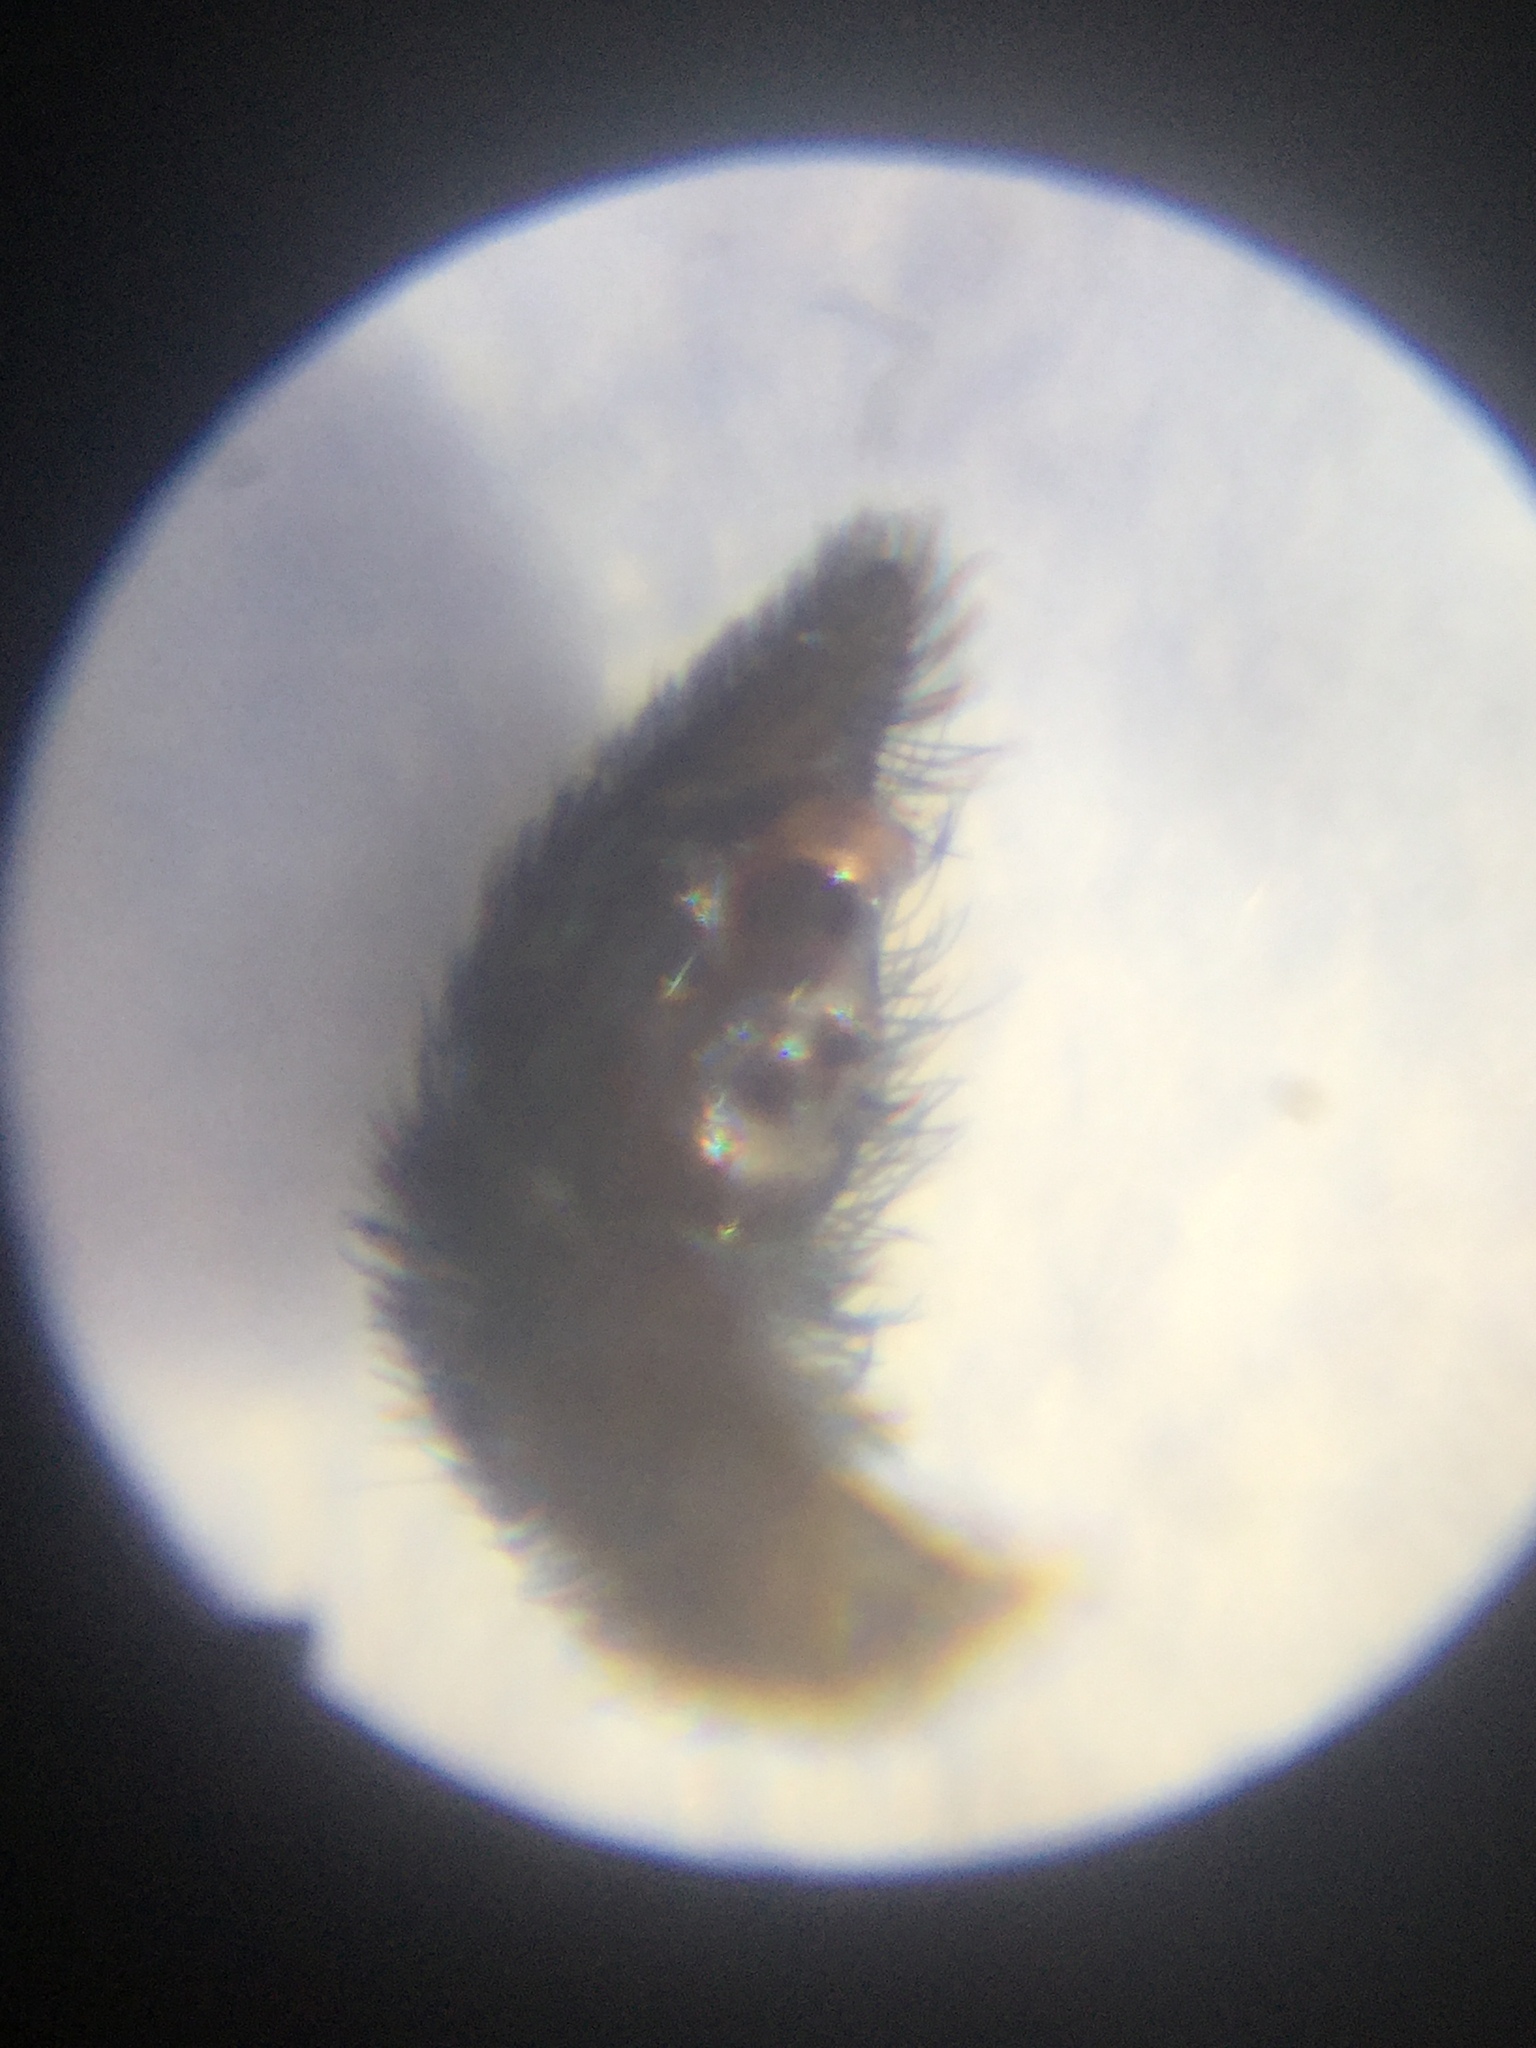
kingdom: Animalia
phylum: Arthropoda
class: Arachnida
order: Araneae
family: Lycosidae
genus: Pardosa
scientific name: Pardosa pauxilla
